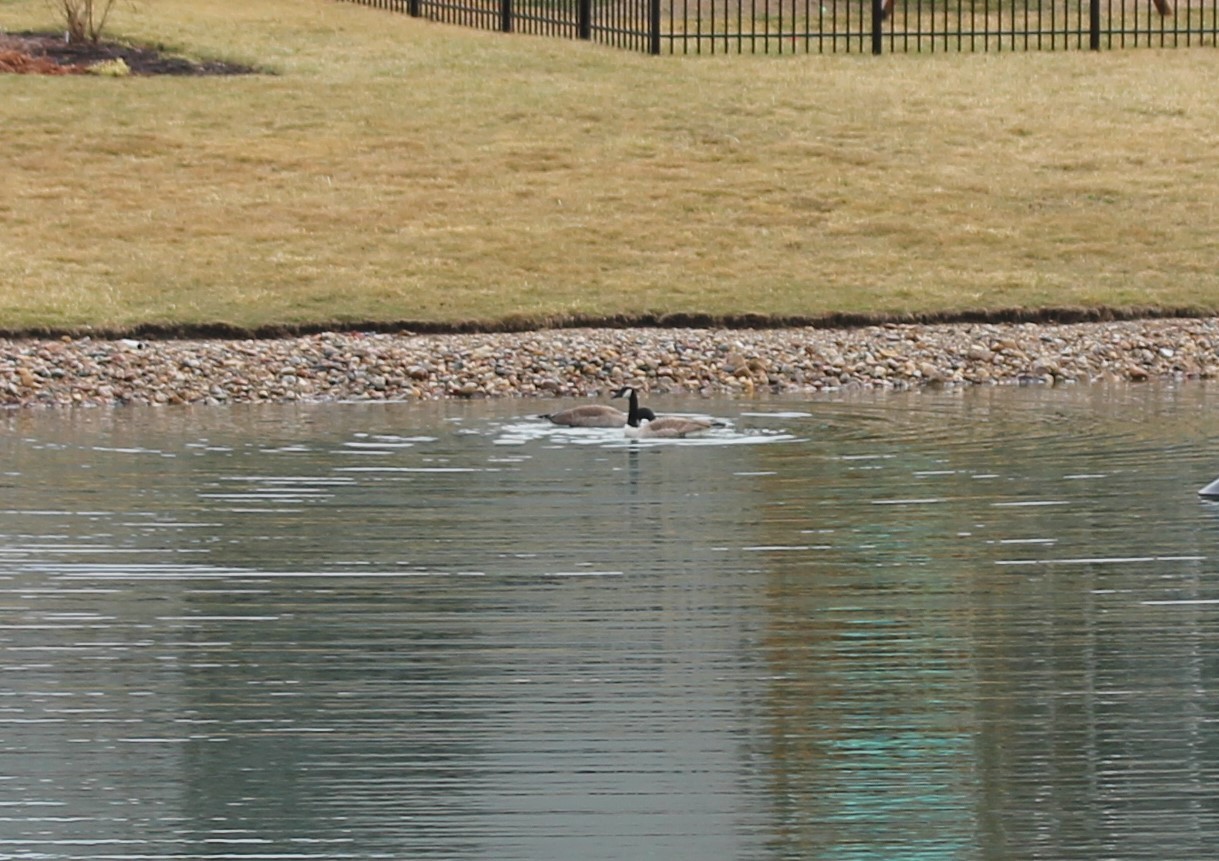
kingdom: Animalia
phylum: Chordata
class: Aves
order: Anseriformes
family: Anatidae
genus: Branta
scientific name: Branta canadensis
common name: Canada goose
